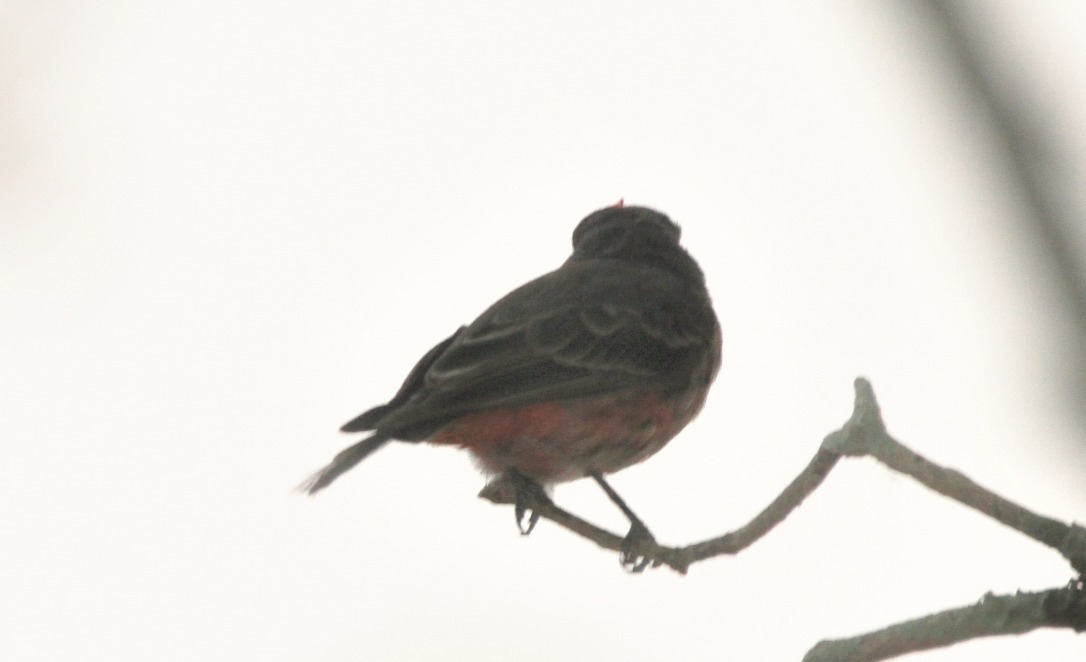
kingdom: Animalia
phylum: Chordata
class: Aves
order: Passeriformes
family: Tyrannidae
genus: Pyrocephalus
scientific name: Pyrocephalus rubinus
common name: Vermilion flycatcher
